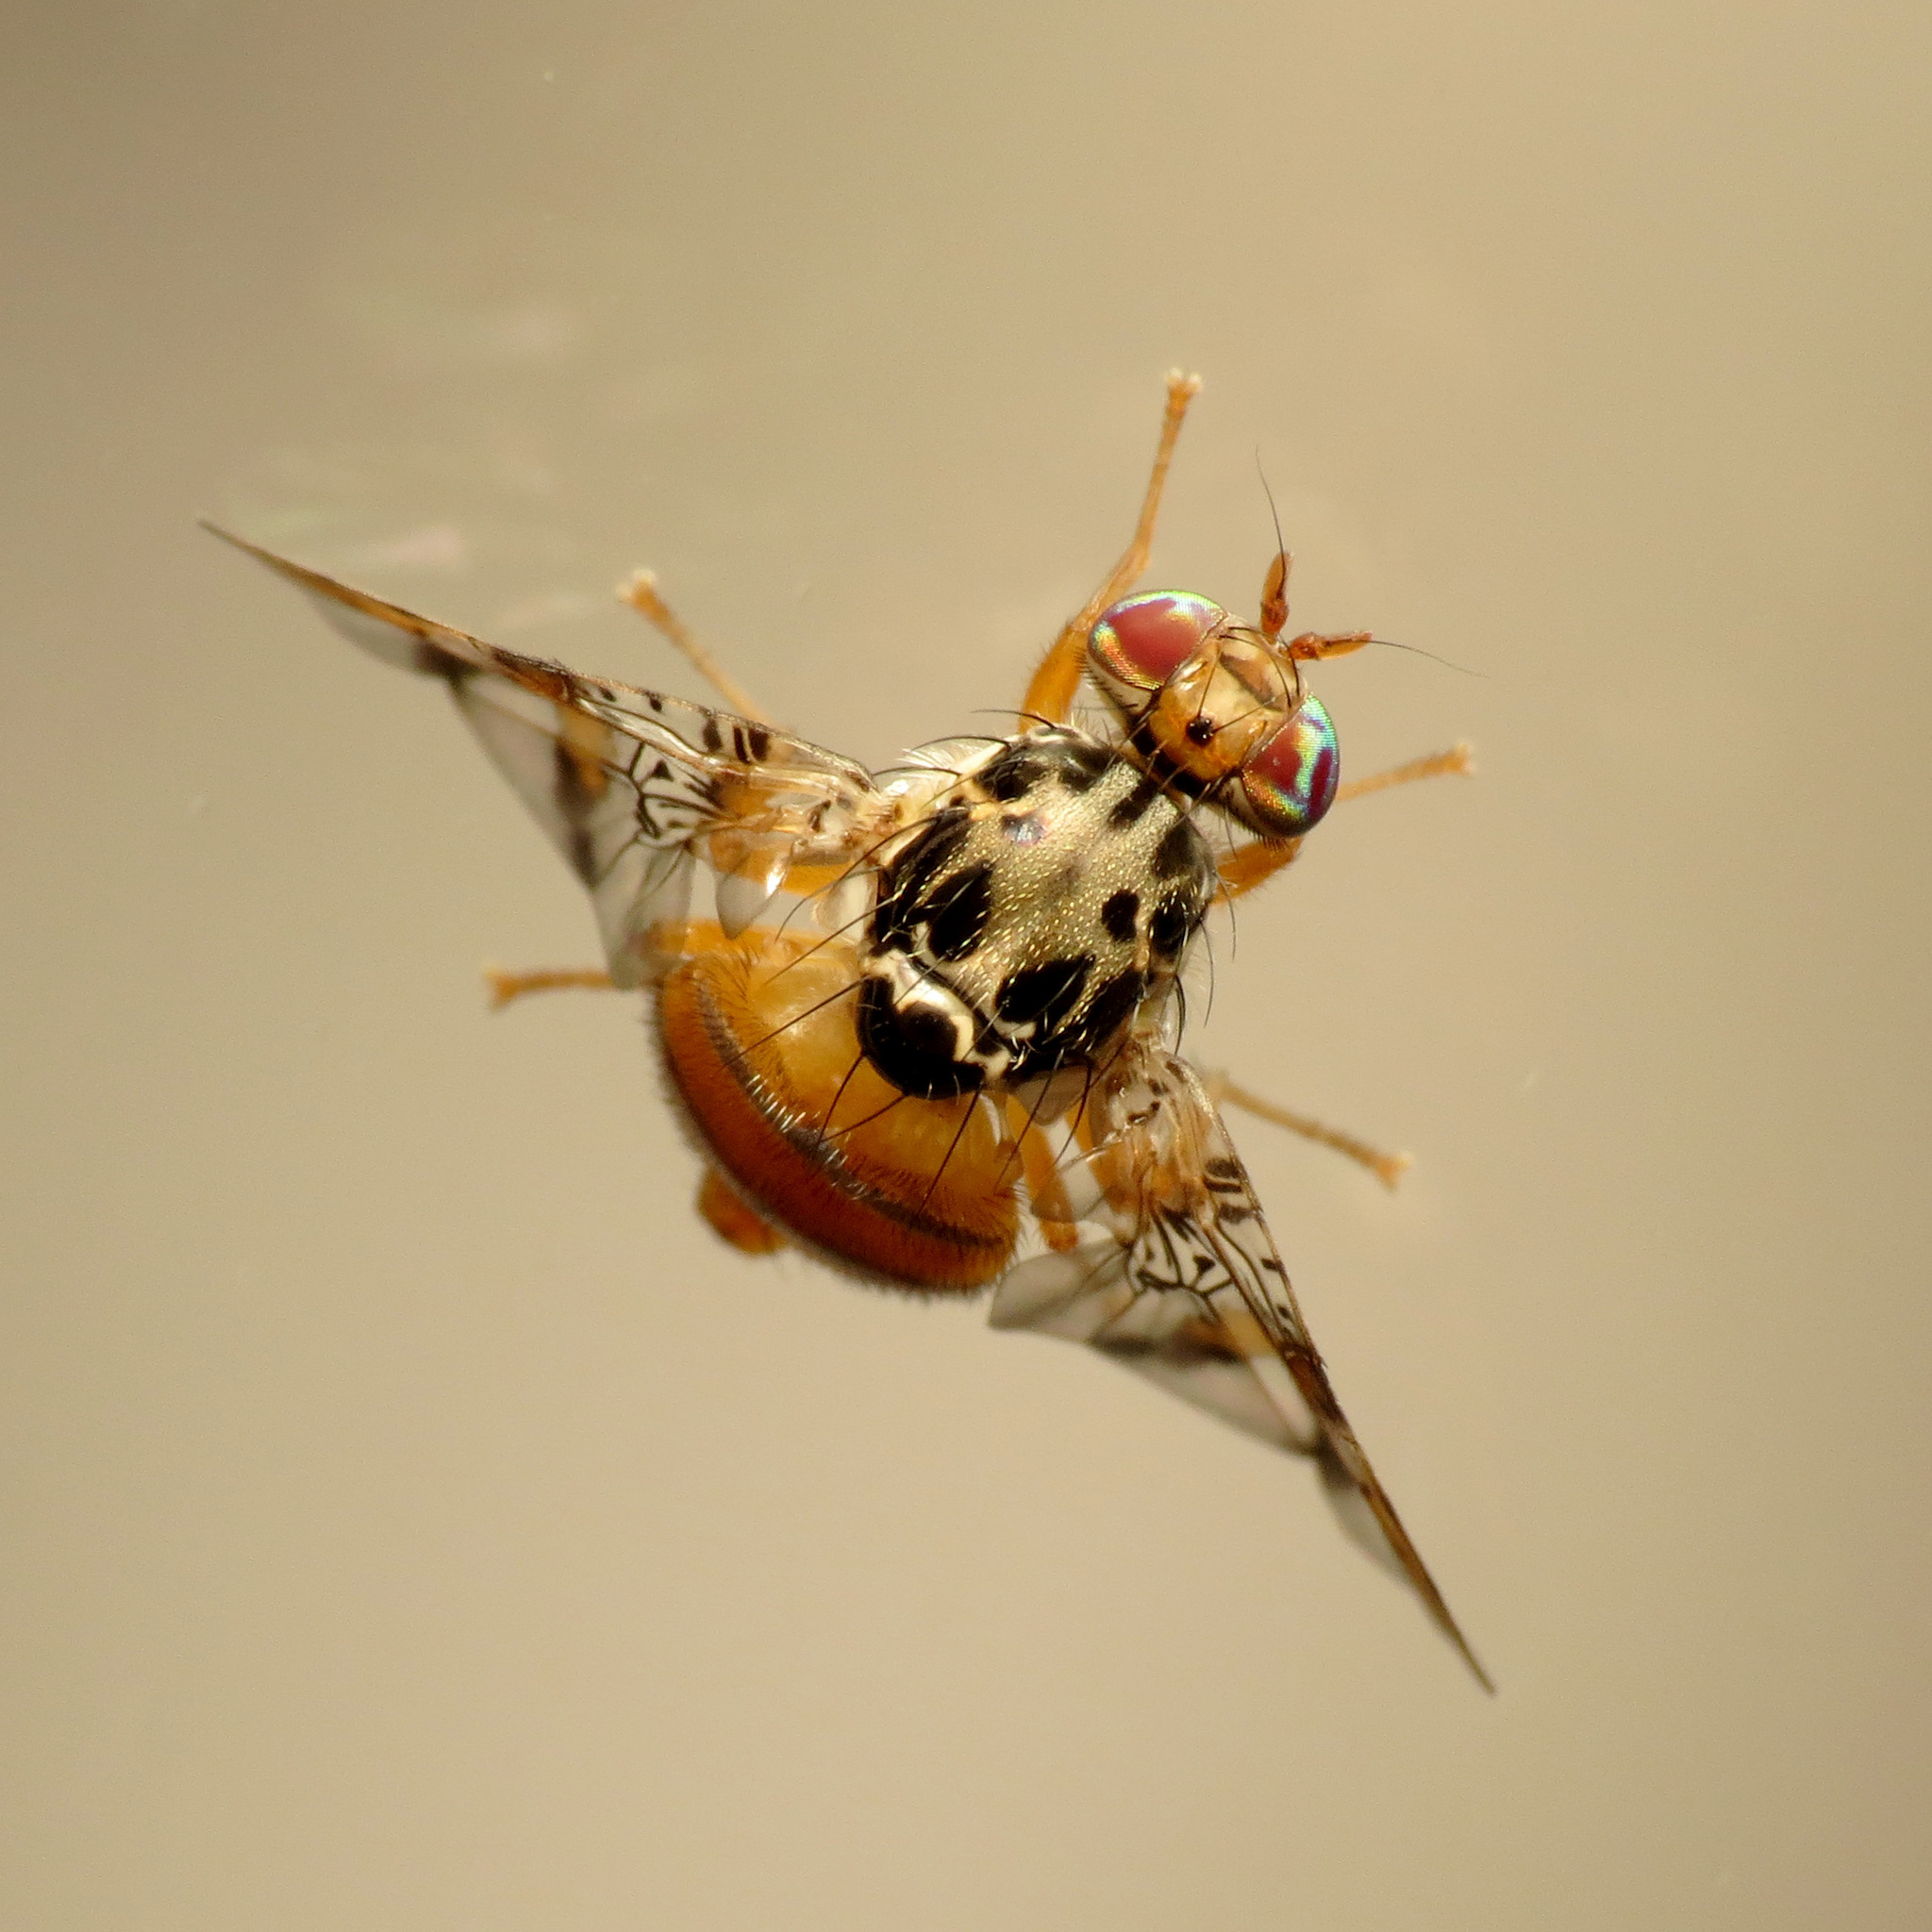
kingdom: Animalia
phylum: Arthropoda
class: Insecta
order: Diptera
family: Tephritidae
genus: Ceratitis
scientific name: Ceratitis capitata
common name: Mediterranean fruit fly
